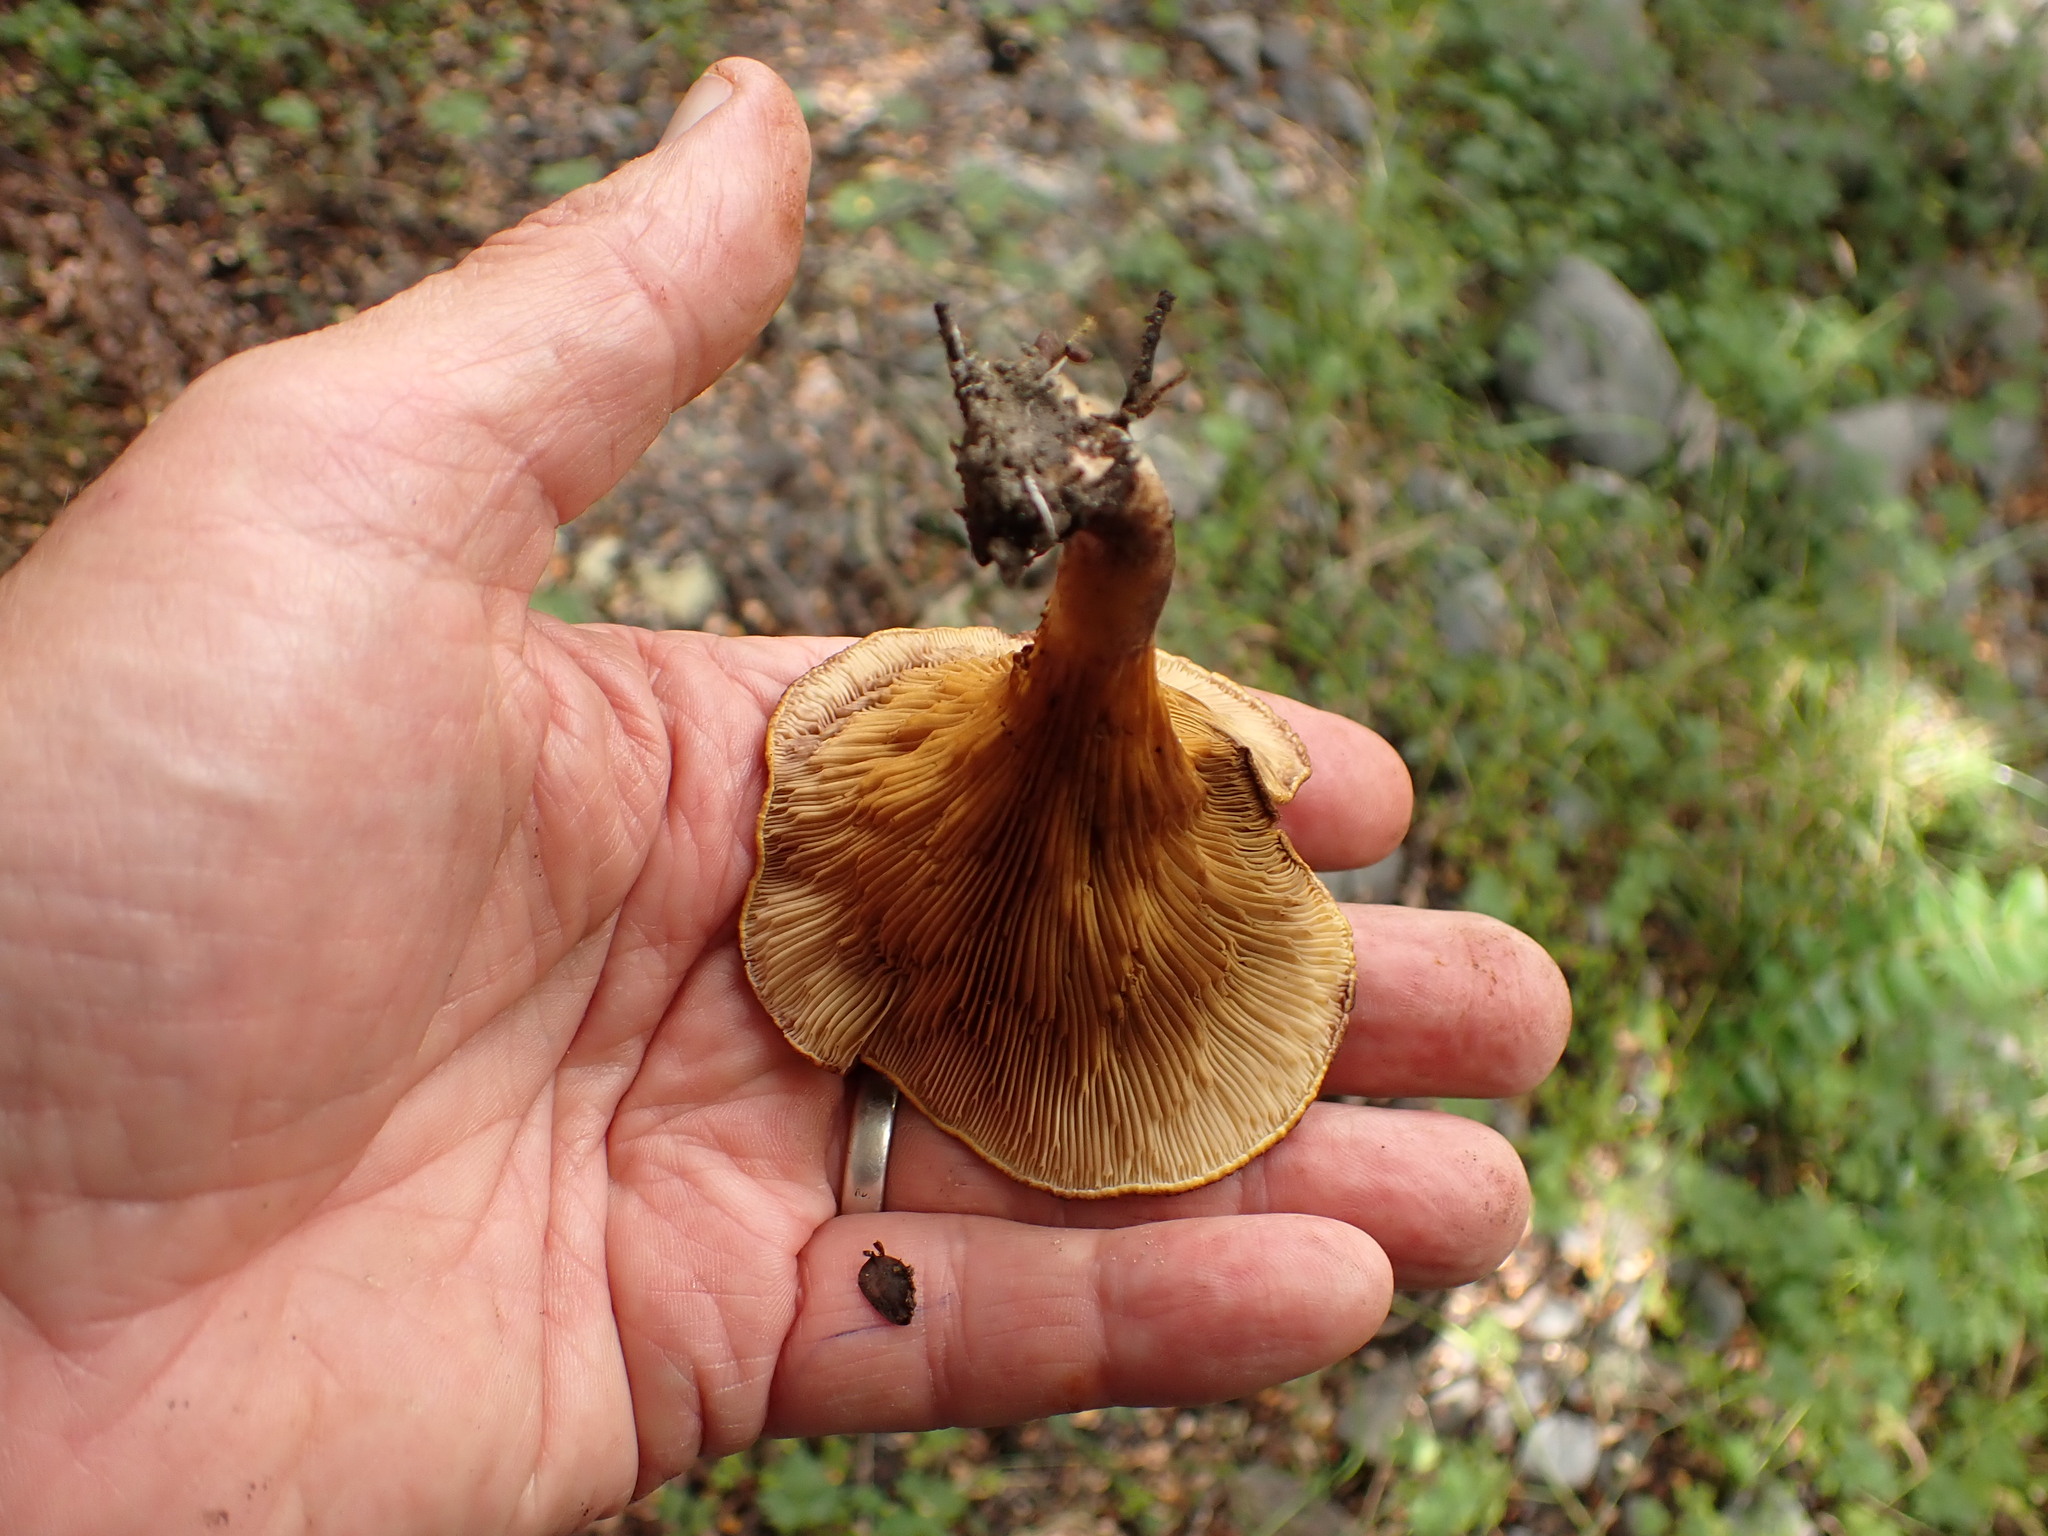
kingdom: Fungi
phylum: Basidiomycota
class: Agaricomycetes
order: Boletales
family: Serpulaceae
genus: Austropaxillus
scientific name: Austropaxillus squarrosus
